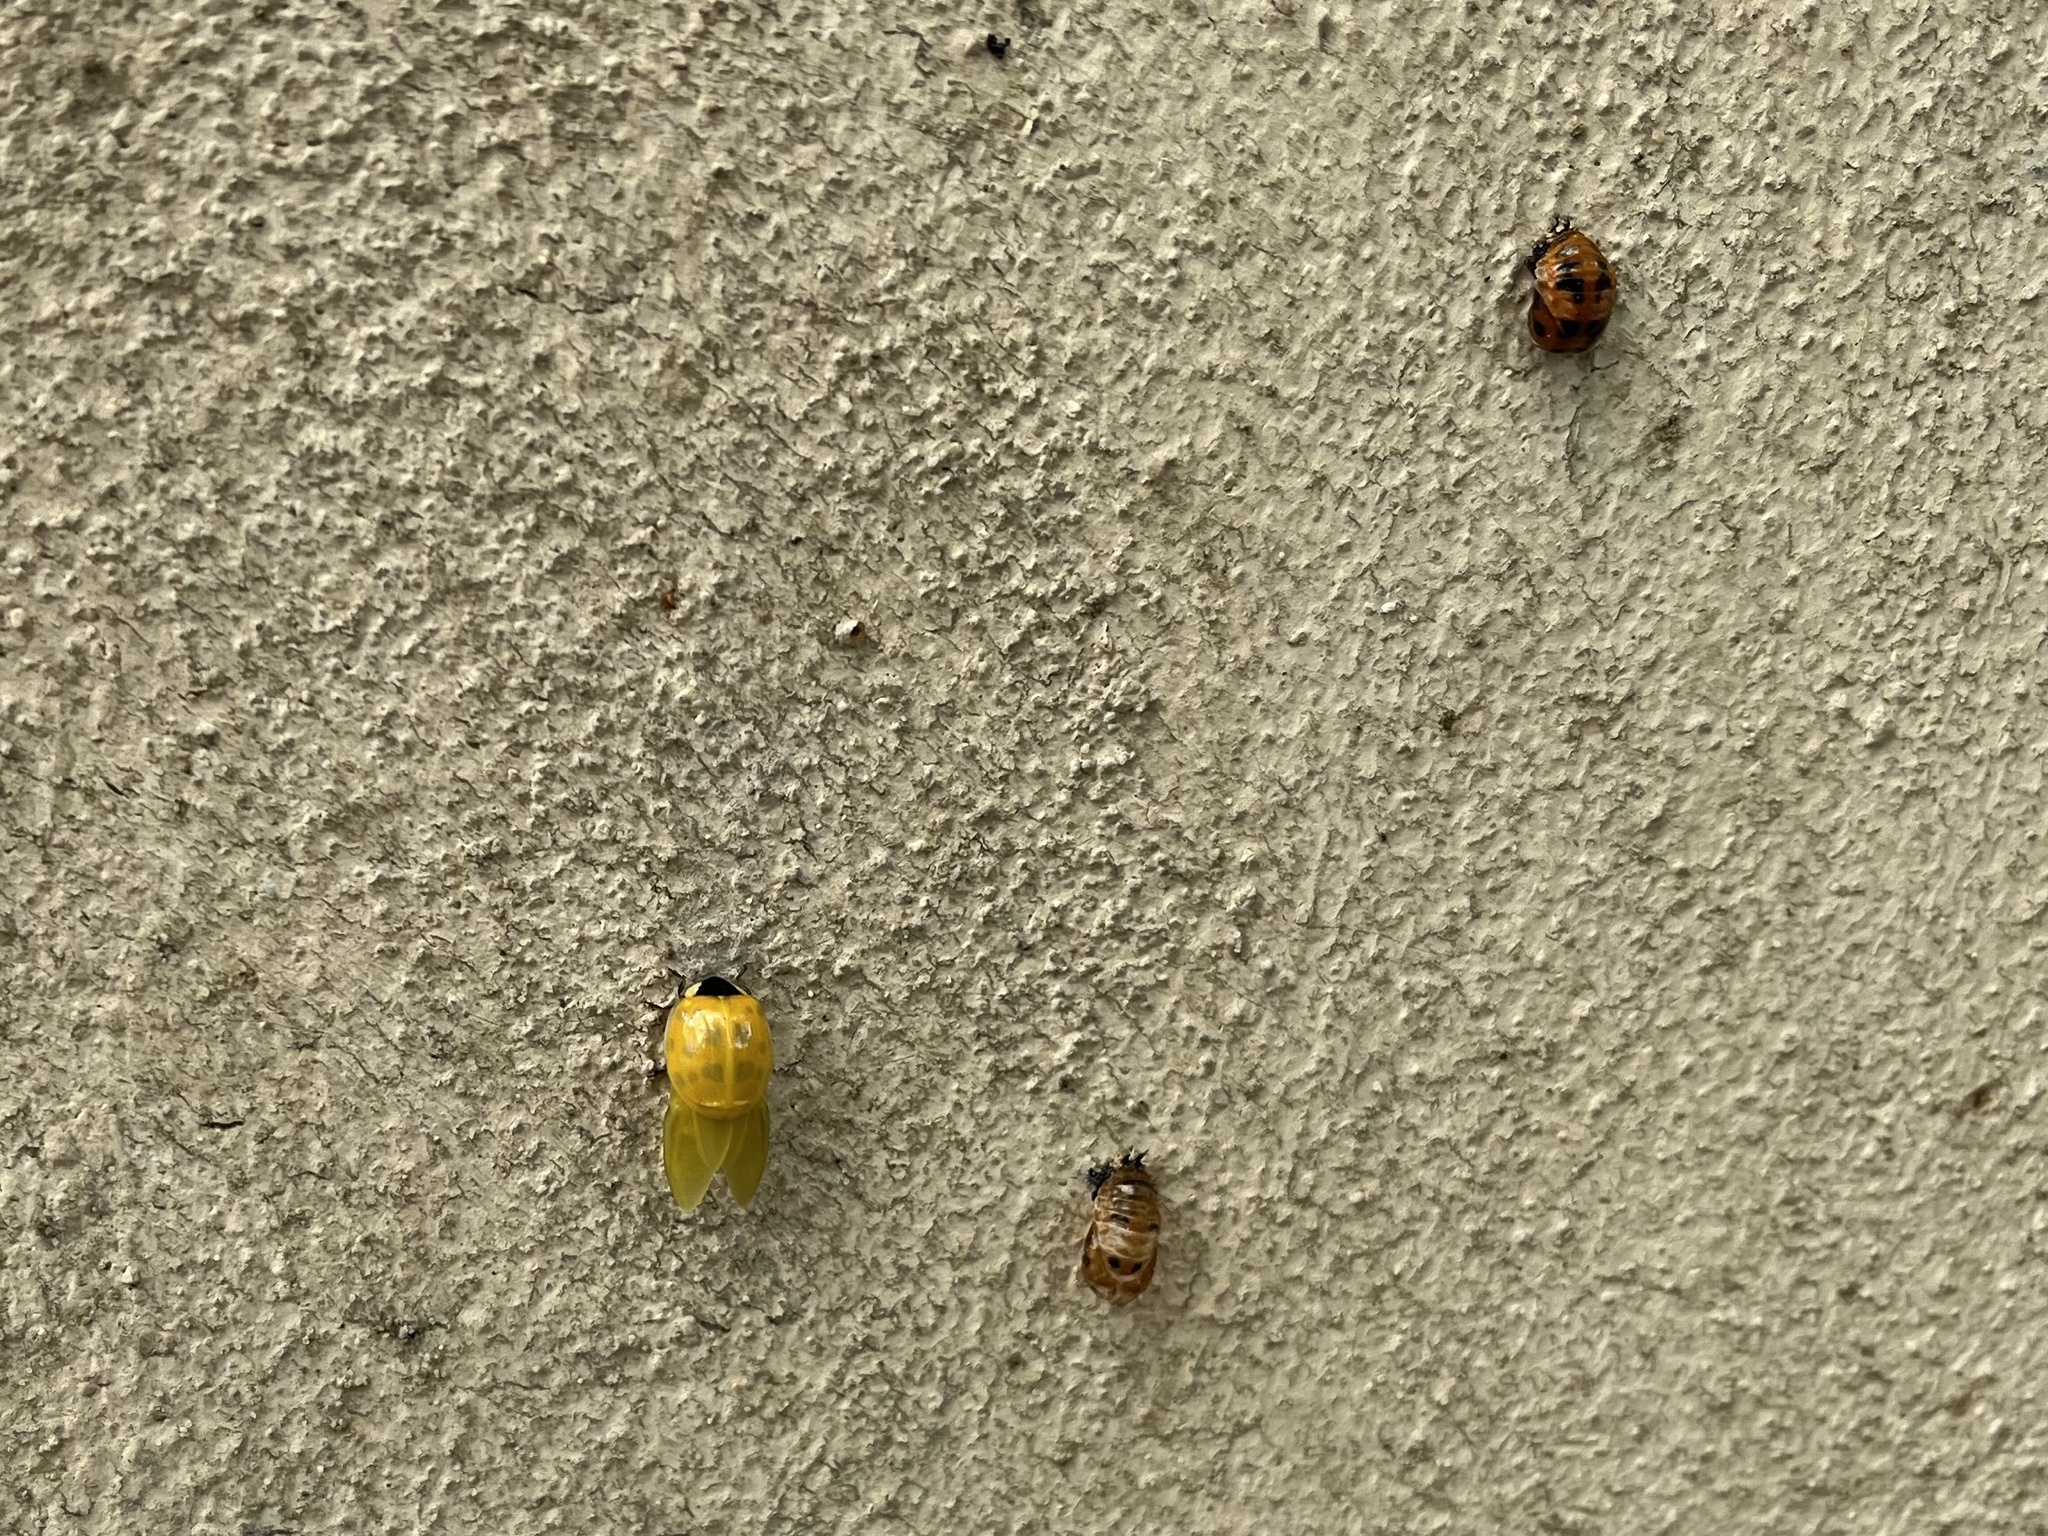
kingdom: Animalia
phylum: Arthropoda
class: Insecta
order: Coleoptera
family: Coccinellidae
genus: Harmonia
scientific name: Harmonia axyridis
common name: Harlequin ladybird
